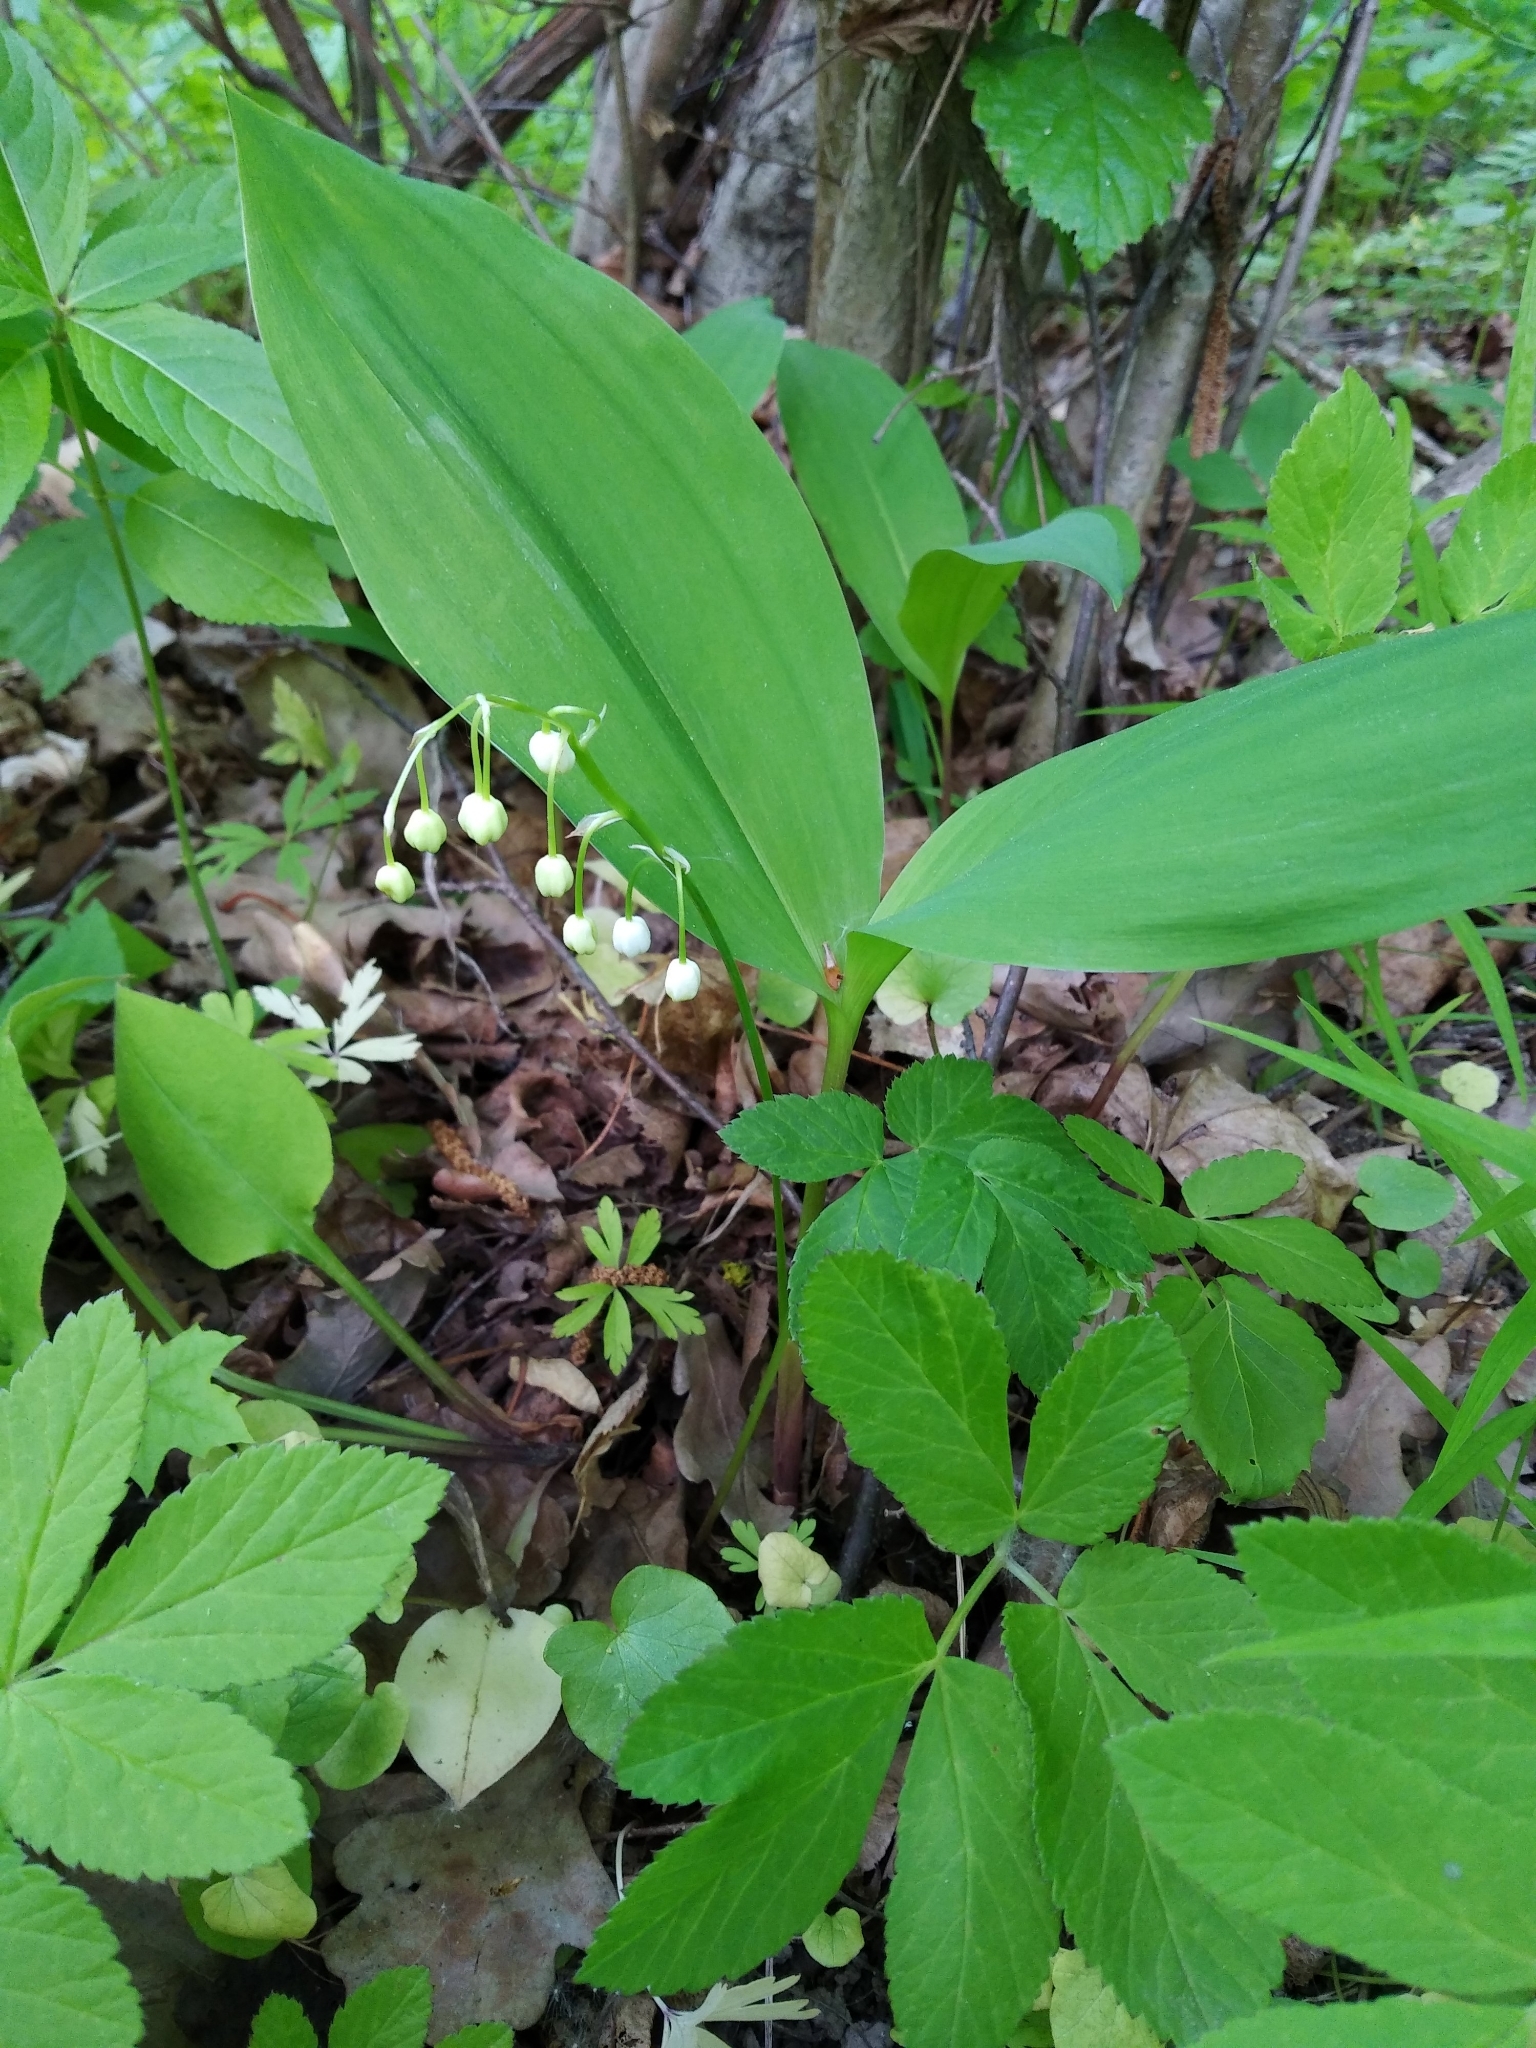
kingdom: Plantae
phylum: Tracheophyta
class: Liliopsida
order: Asparagales
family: Asparagaceae
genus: Convallaria
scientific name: Convallaria majalis
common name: Lily-of-the-valley
